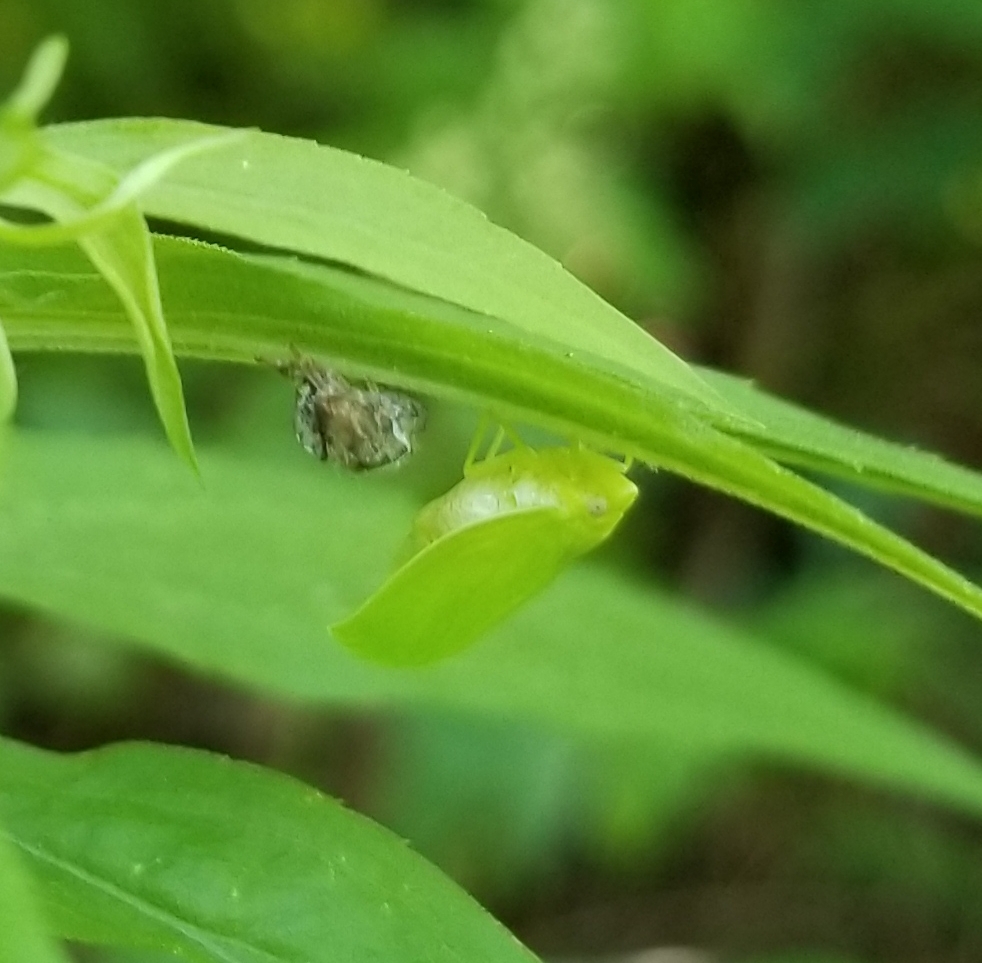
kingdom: Animalia
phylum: Arthropoda
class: Insecta
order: Hemiptera
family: Acanaloniidae
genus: Acanalonia
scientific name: Acanalonia conica
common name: Green cone-headed planthopper
